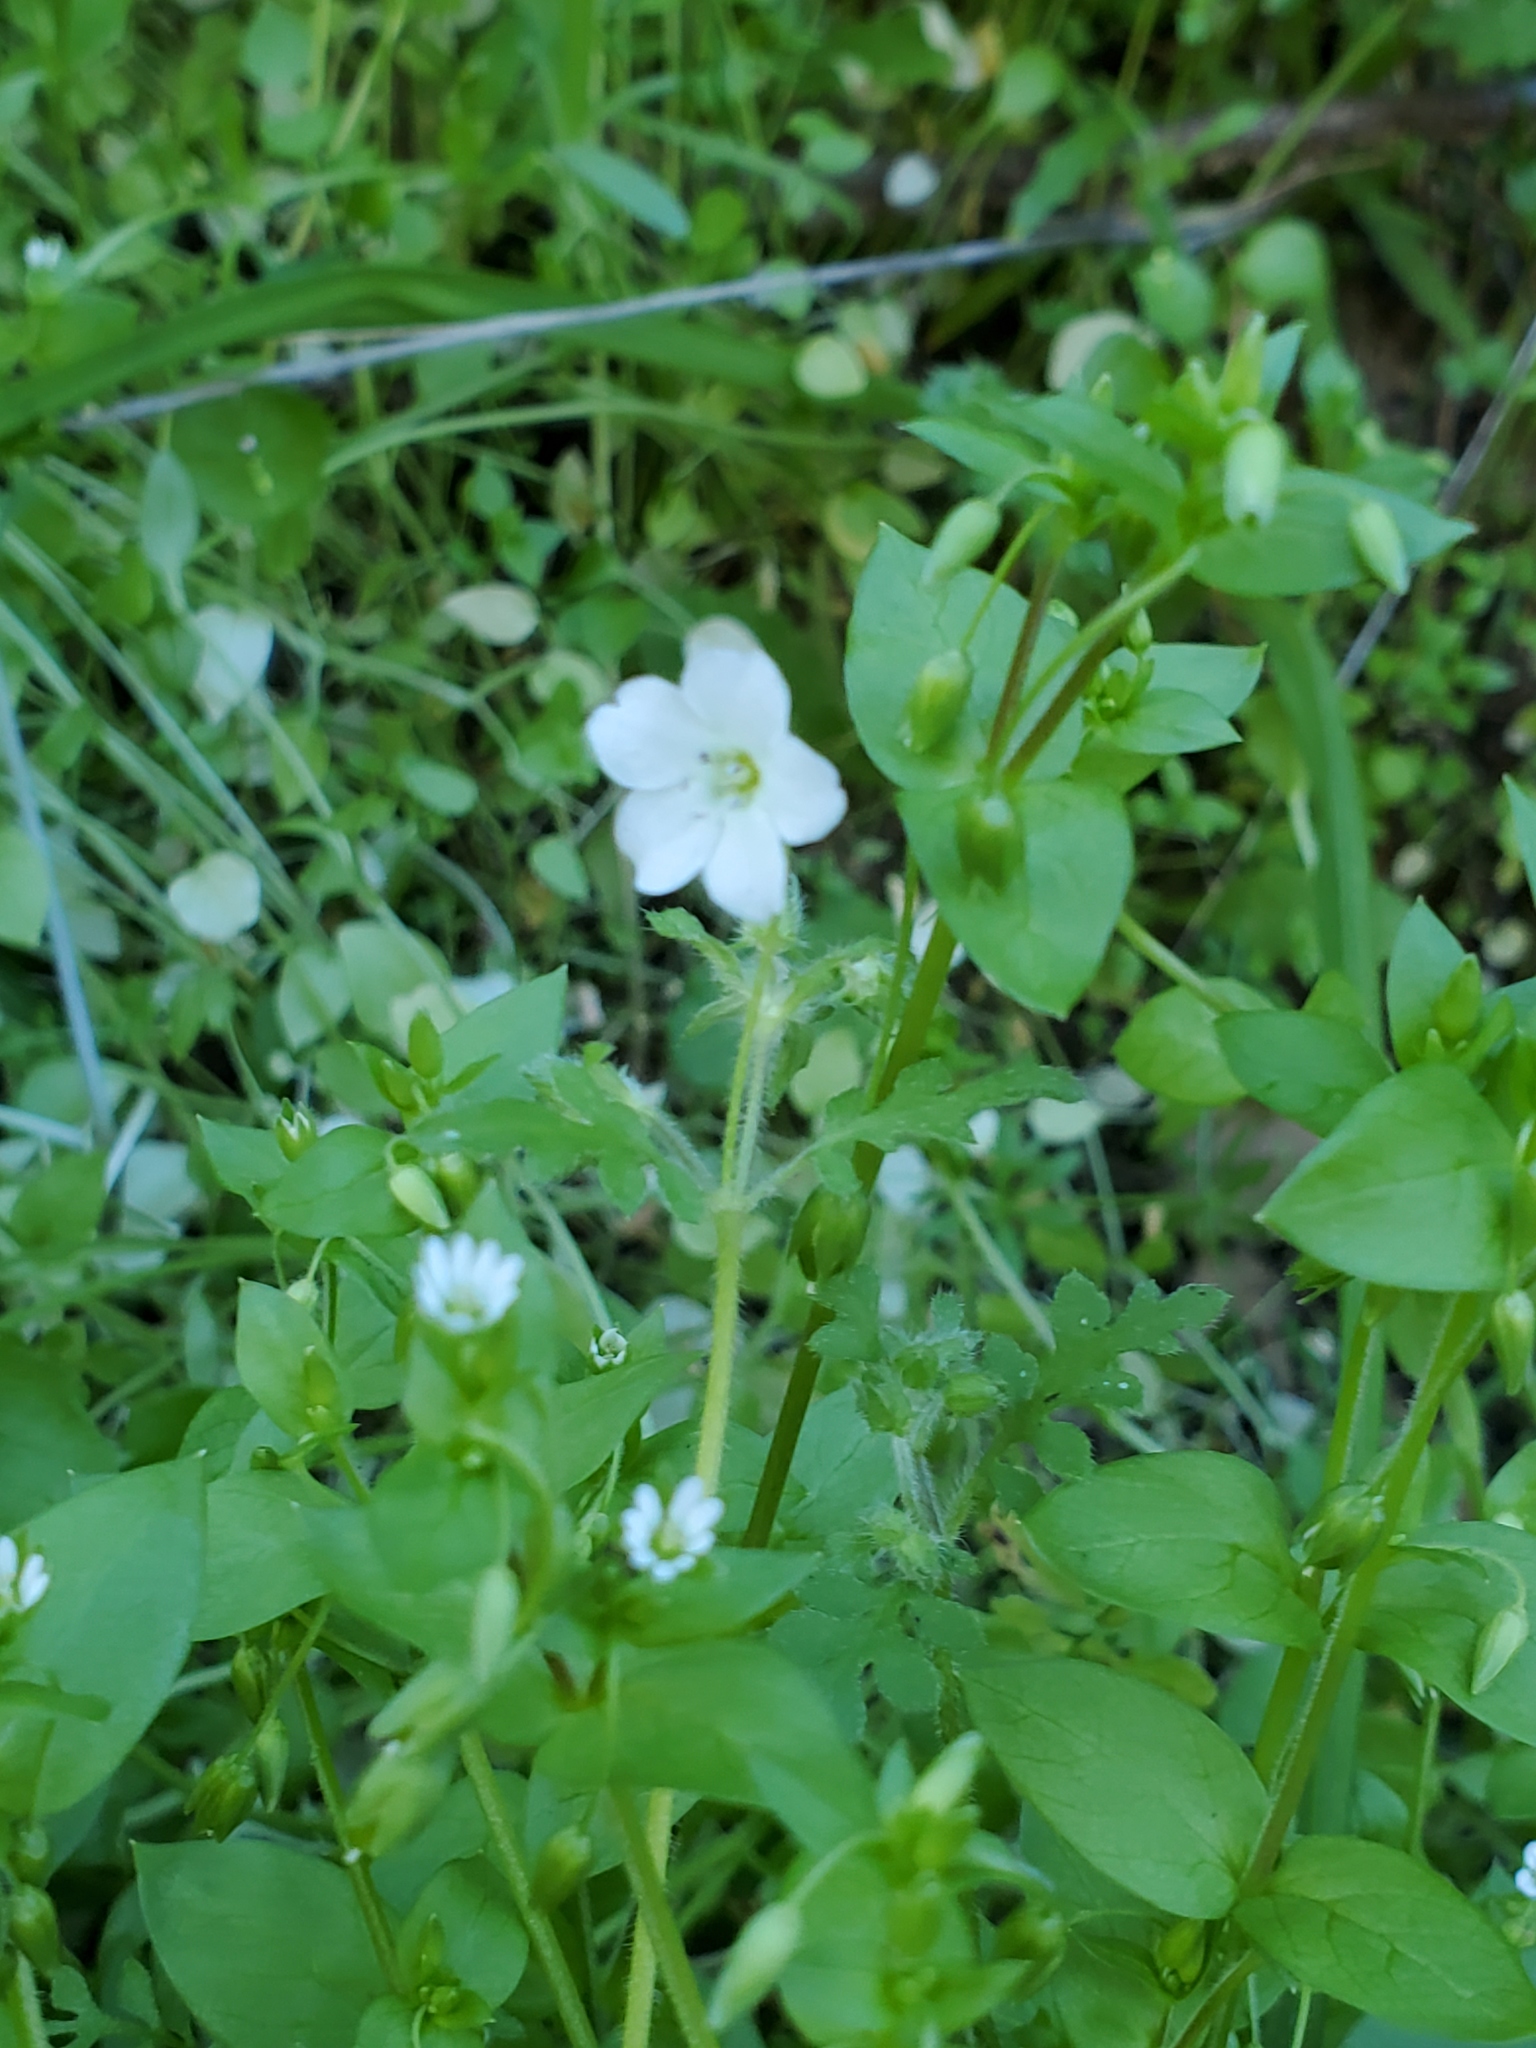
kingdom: Plantae
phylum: Tracheophyta
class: Magnoliopsida
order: Boraginales
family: Hydrophyllaceae
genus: Nemophila
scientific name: Nemophila heterophylla
